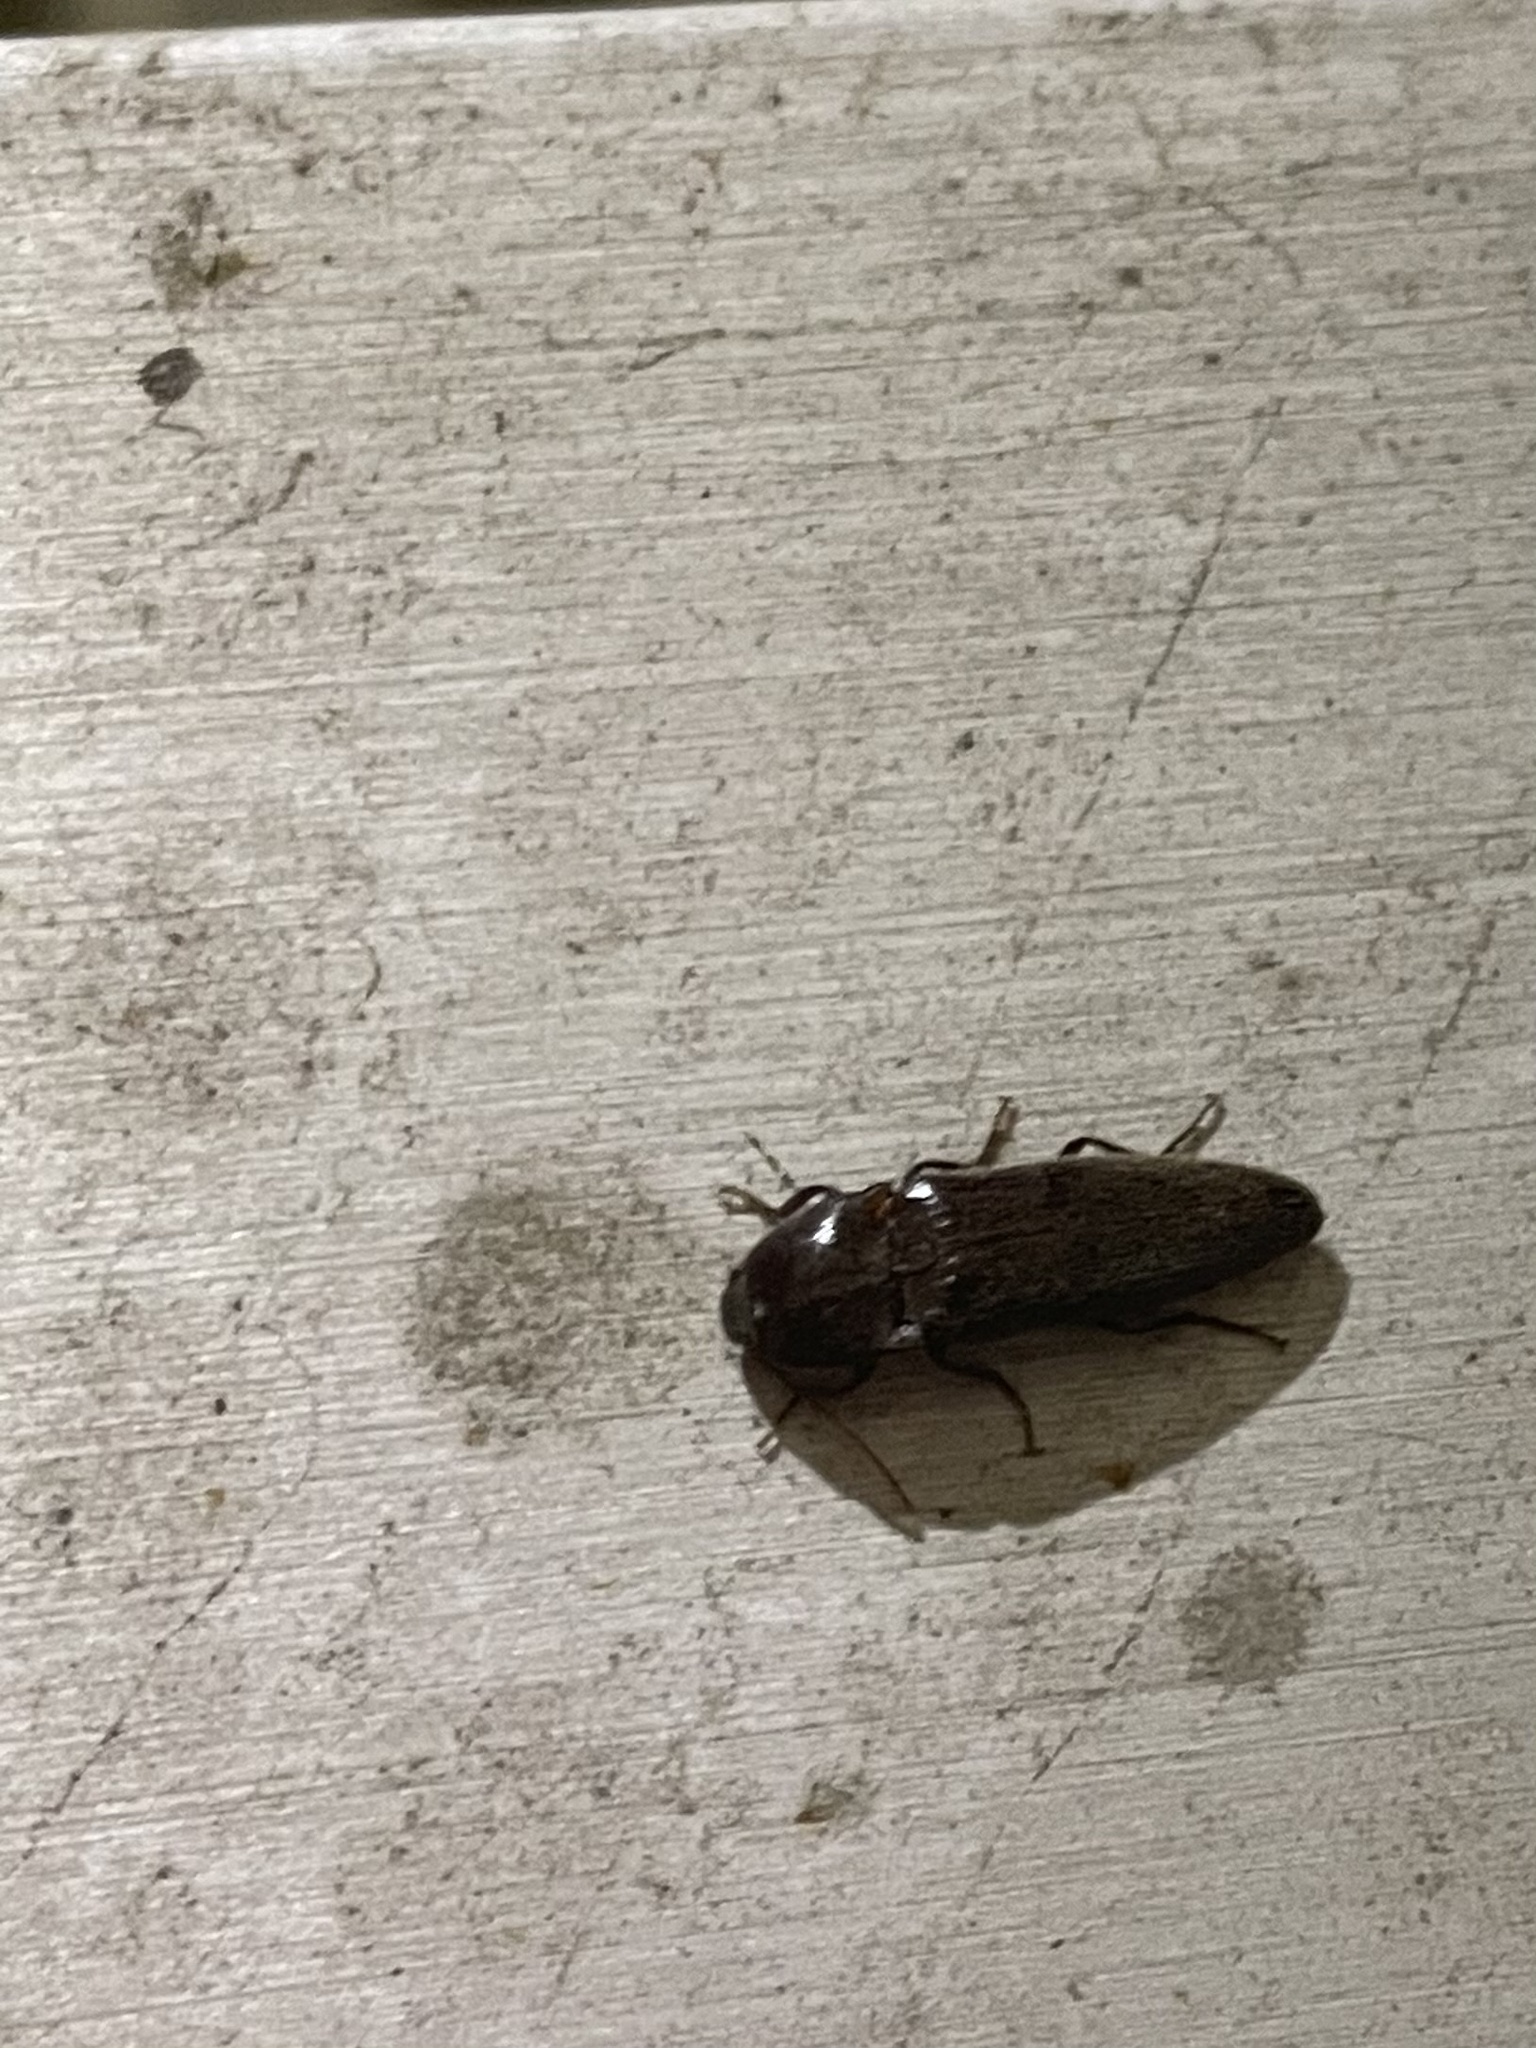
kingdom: Animalia
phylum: Arthropoda
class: Insecta
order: Coleoptera
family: Elateridae
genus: Melanotus
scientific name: Melanotus
